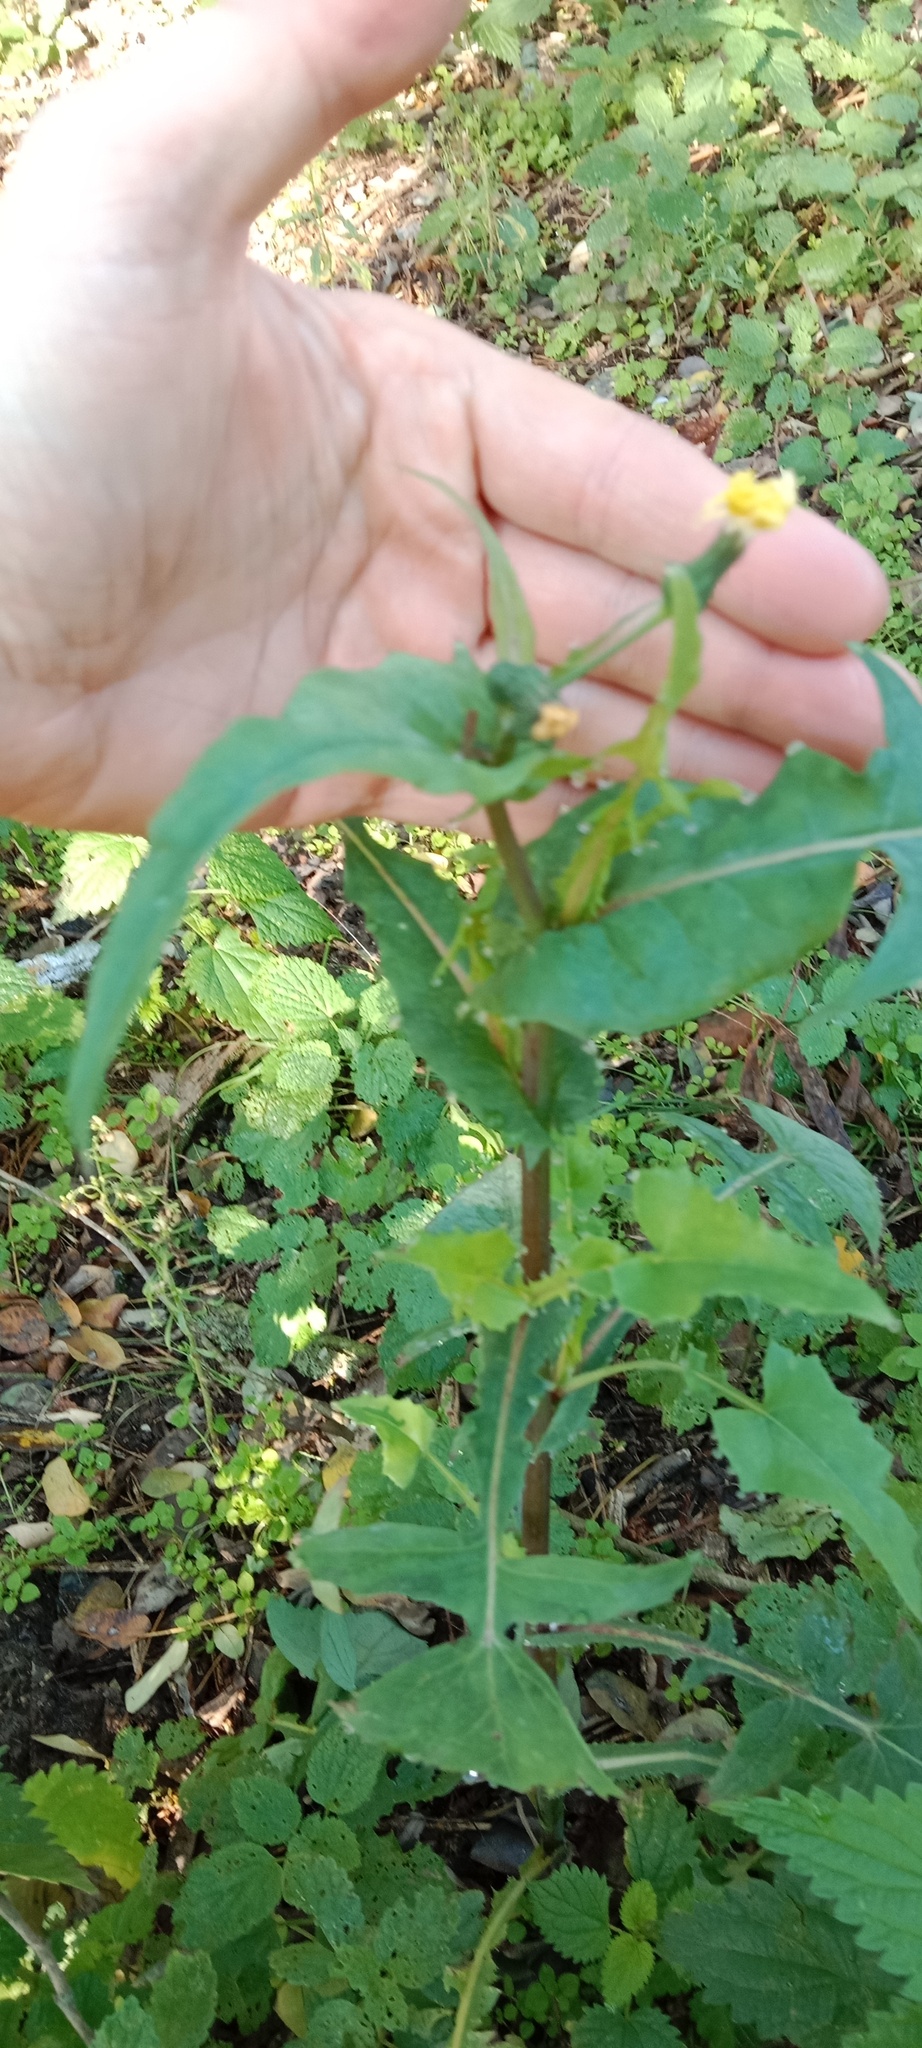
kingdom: Plantae
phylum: Tracheophyta
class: Magnoliopsida
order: Asterales
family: Asteraceae
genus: Sonchus
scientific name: Sonchus oleraceus
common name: Common sowthistle
